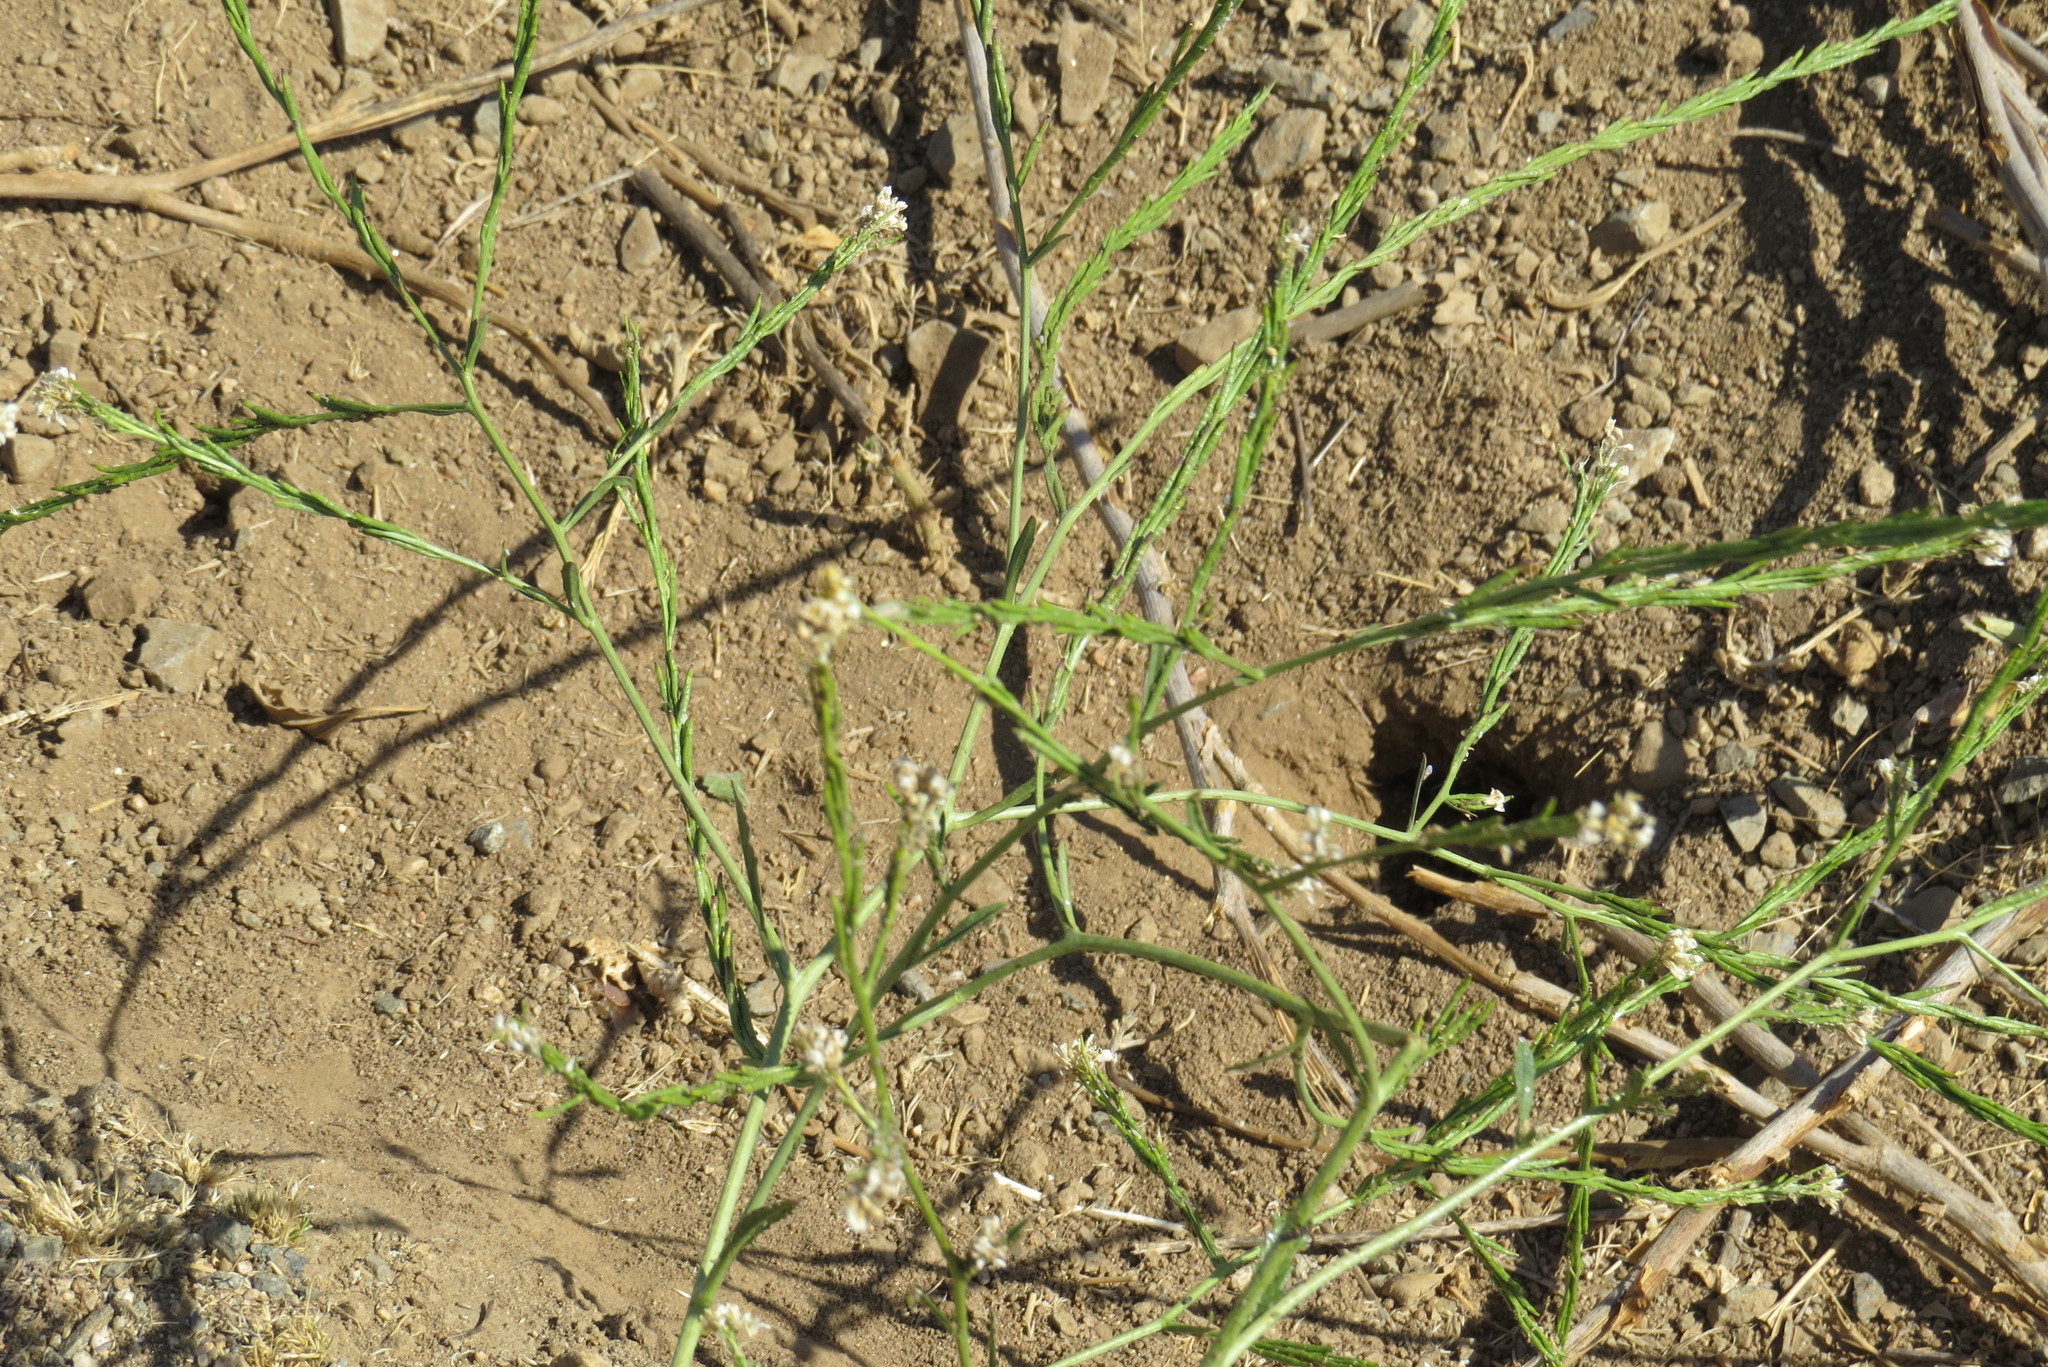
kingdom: Plantae
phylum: Tracheophyta
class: Magnoliopsida
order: Brassicales
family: Brassicaceae
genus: Hirschfeldia
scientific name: Hirschfeldia incana
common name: Hoary mustard
